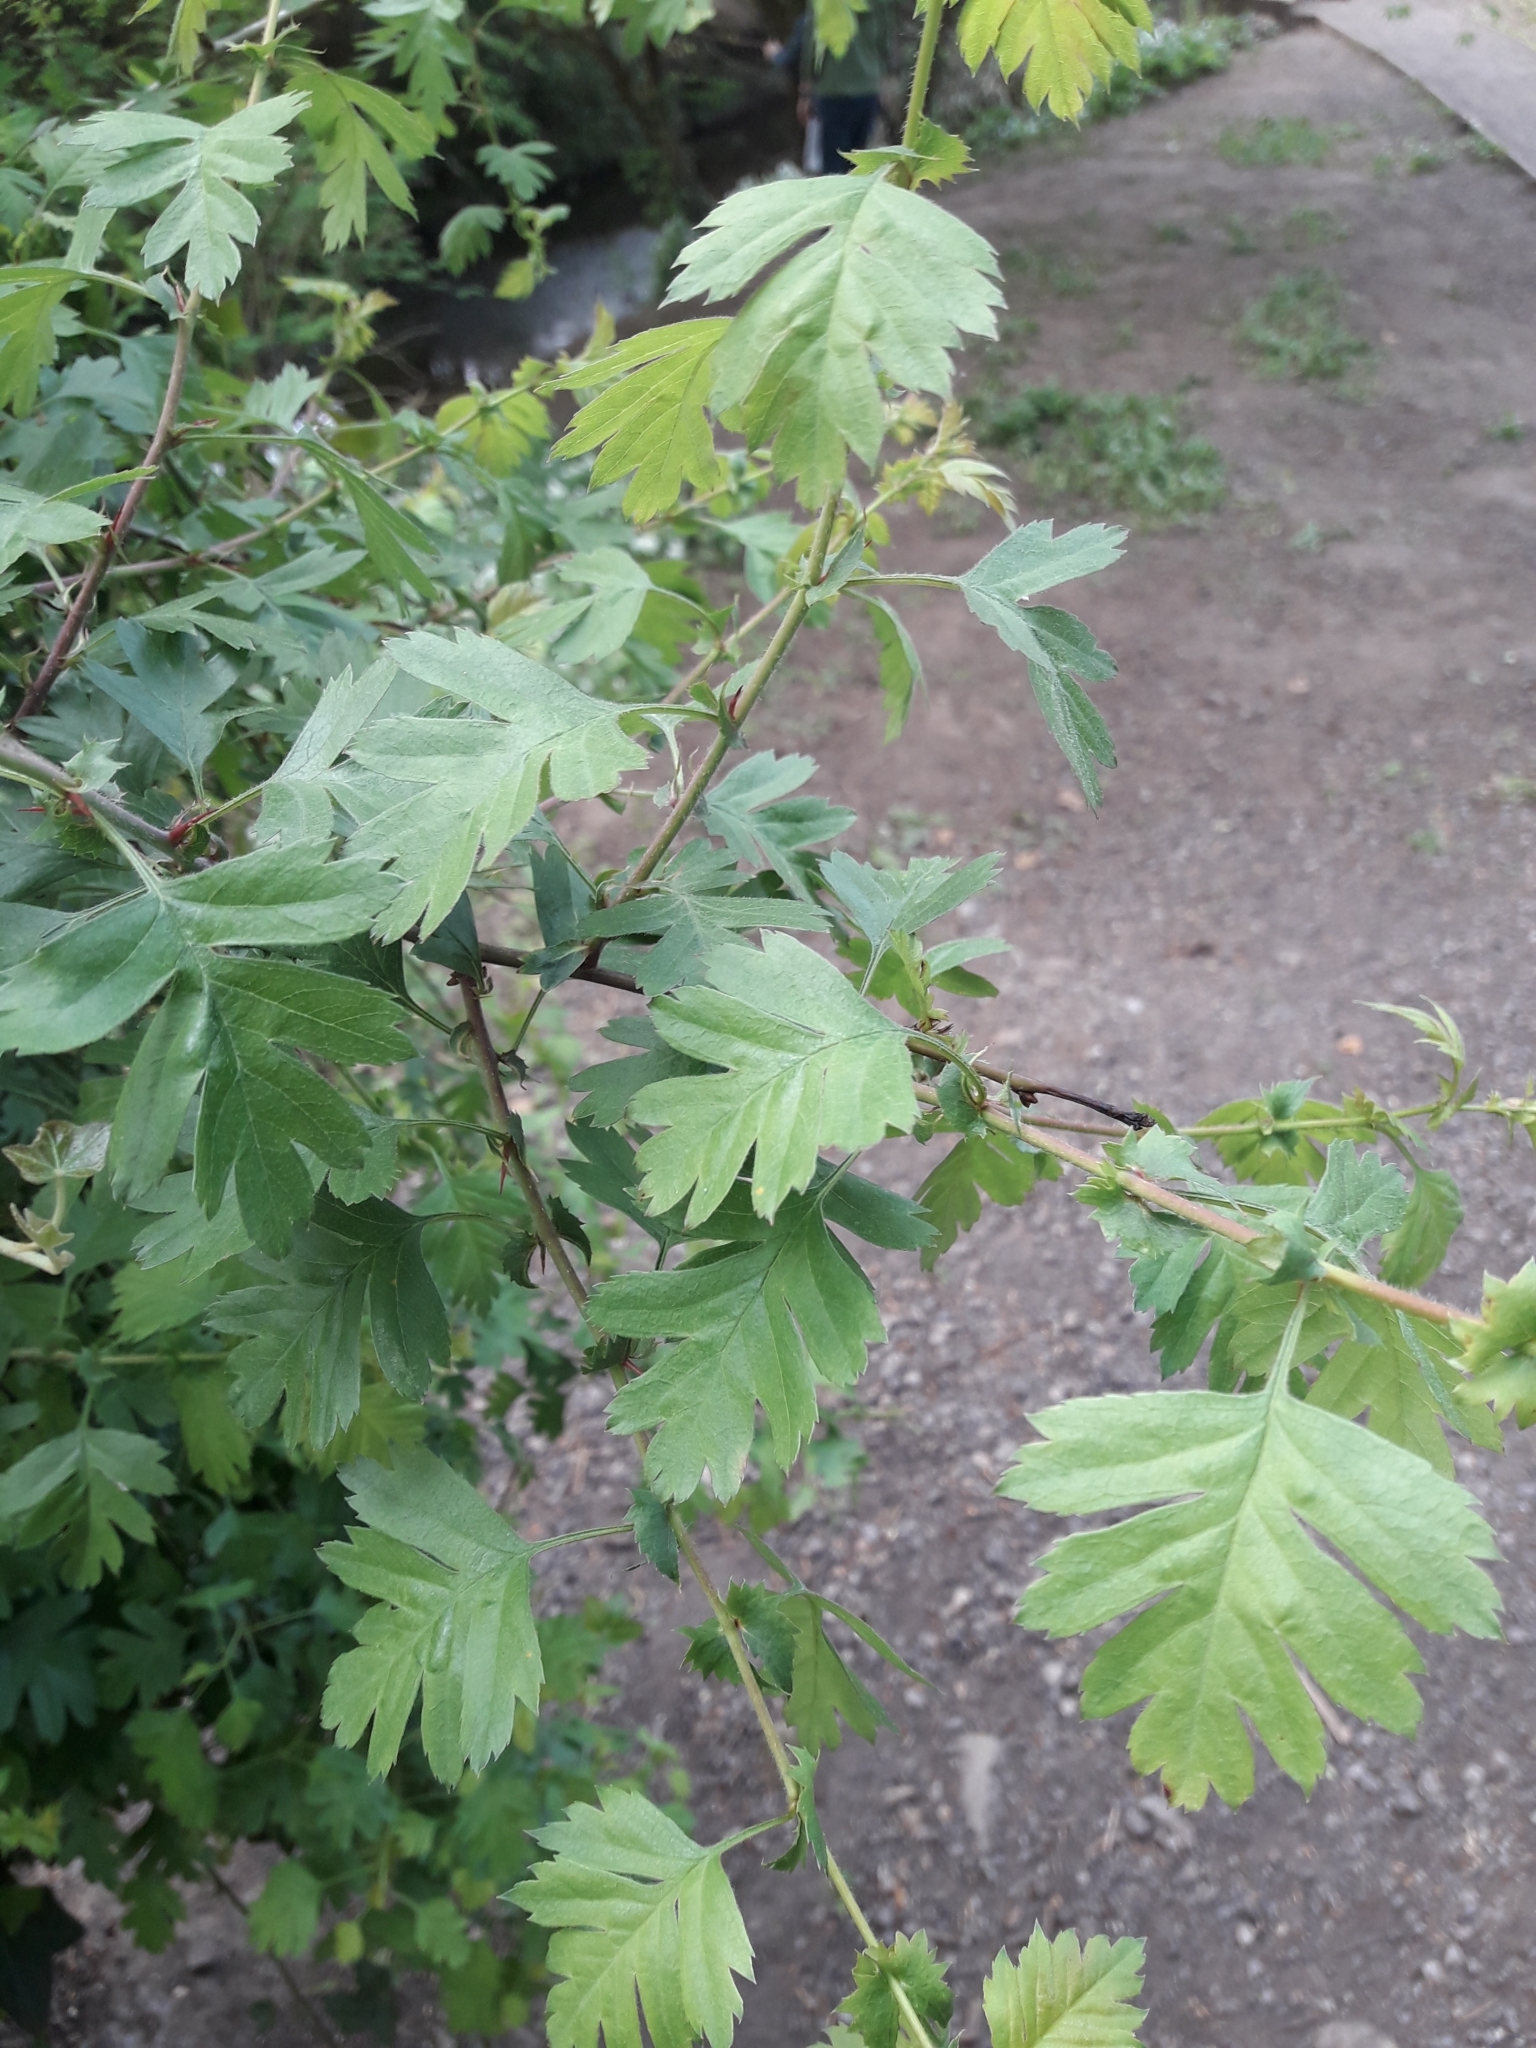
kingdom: Plantae
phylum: Tracheophyta
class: Magnoliopsida
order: Rosales
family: Rosaceae
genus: Crataegus
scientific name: Crataegus monogyna
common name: Hawthorn
